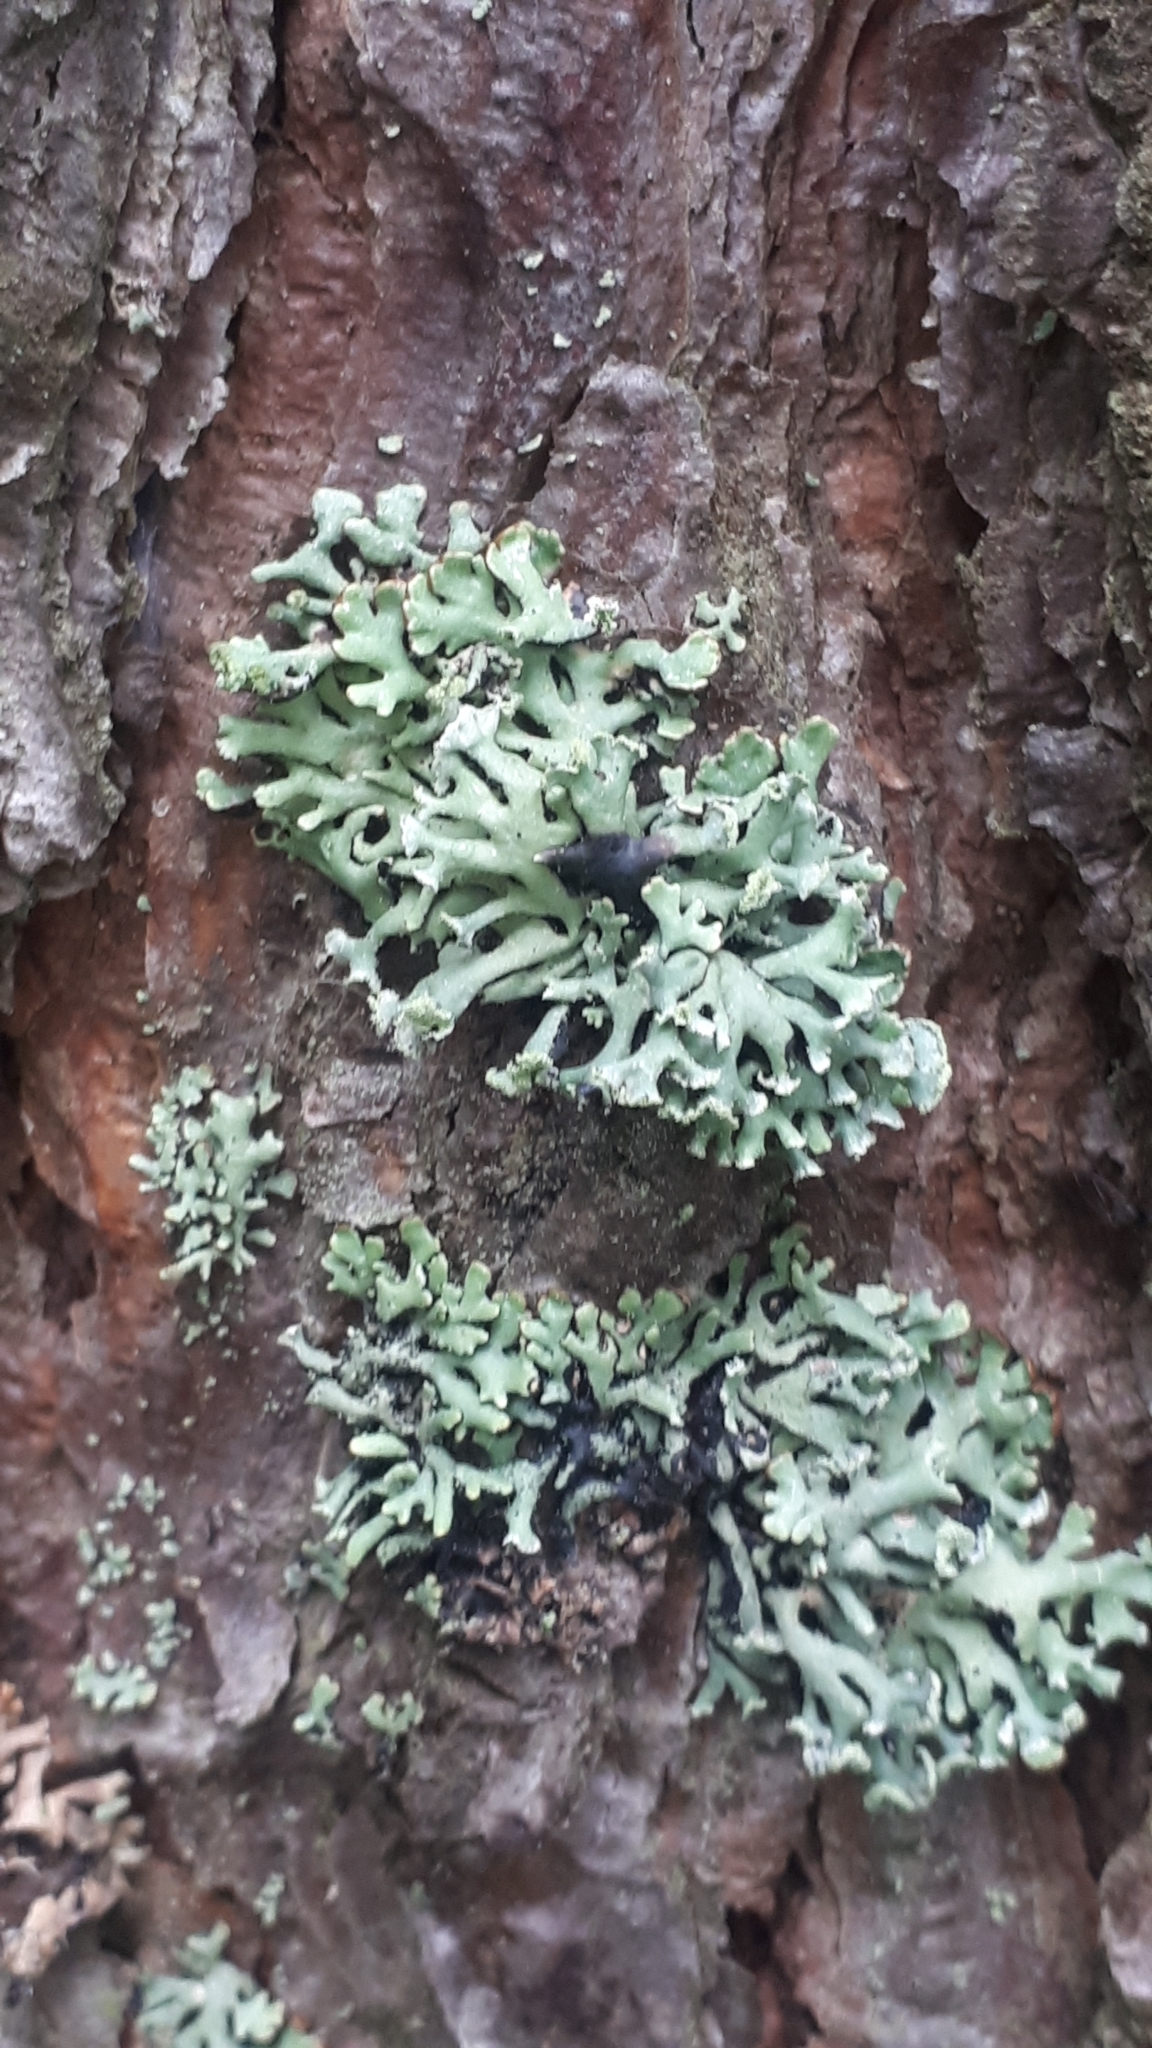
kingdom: Fungi
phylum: Ascomycota
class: Lecanoromycetes
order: Lecanorales
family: Parmeliaceae
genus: Hypogymnia
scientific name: Hypogymnia physodes
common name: Dark crottle
